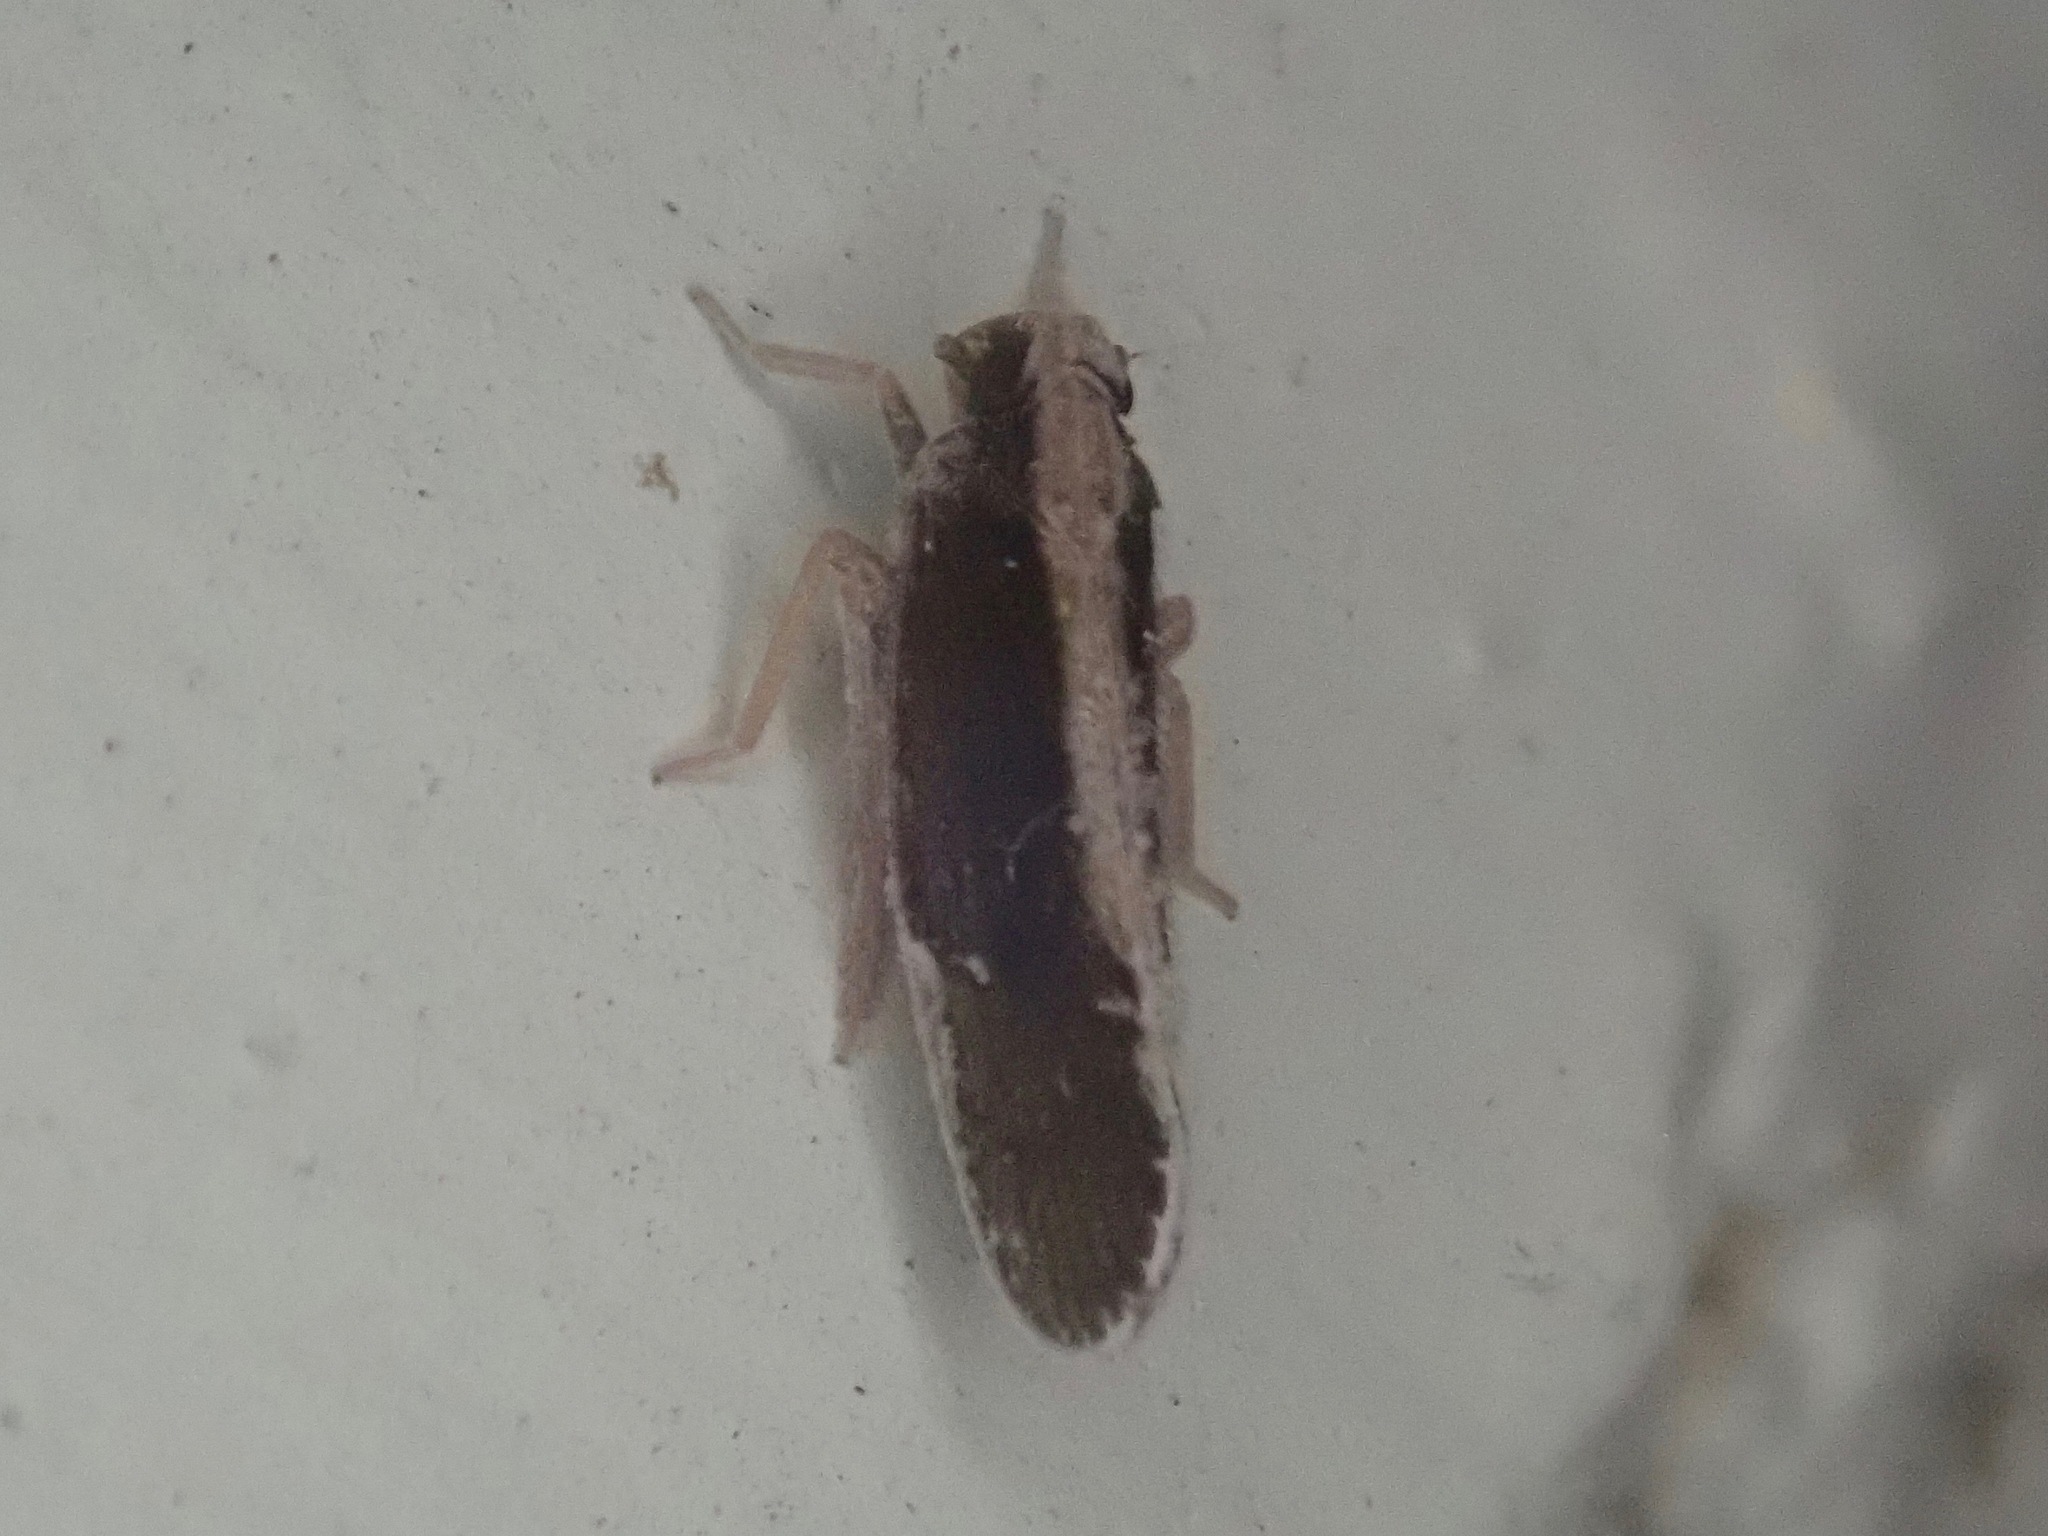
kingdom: Animalia
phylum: Arthropoda
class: Insecta
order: Hemiptera
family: Cixiidae
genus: Pintalia
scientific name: Pintalia delicata
